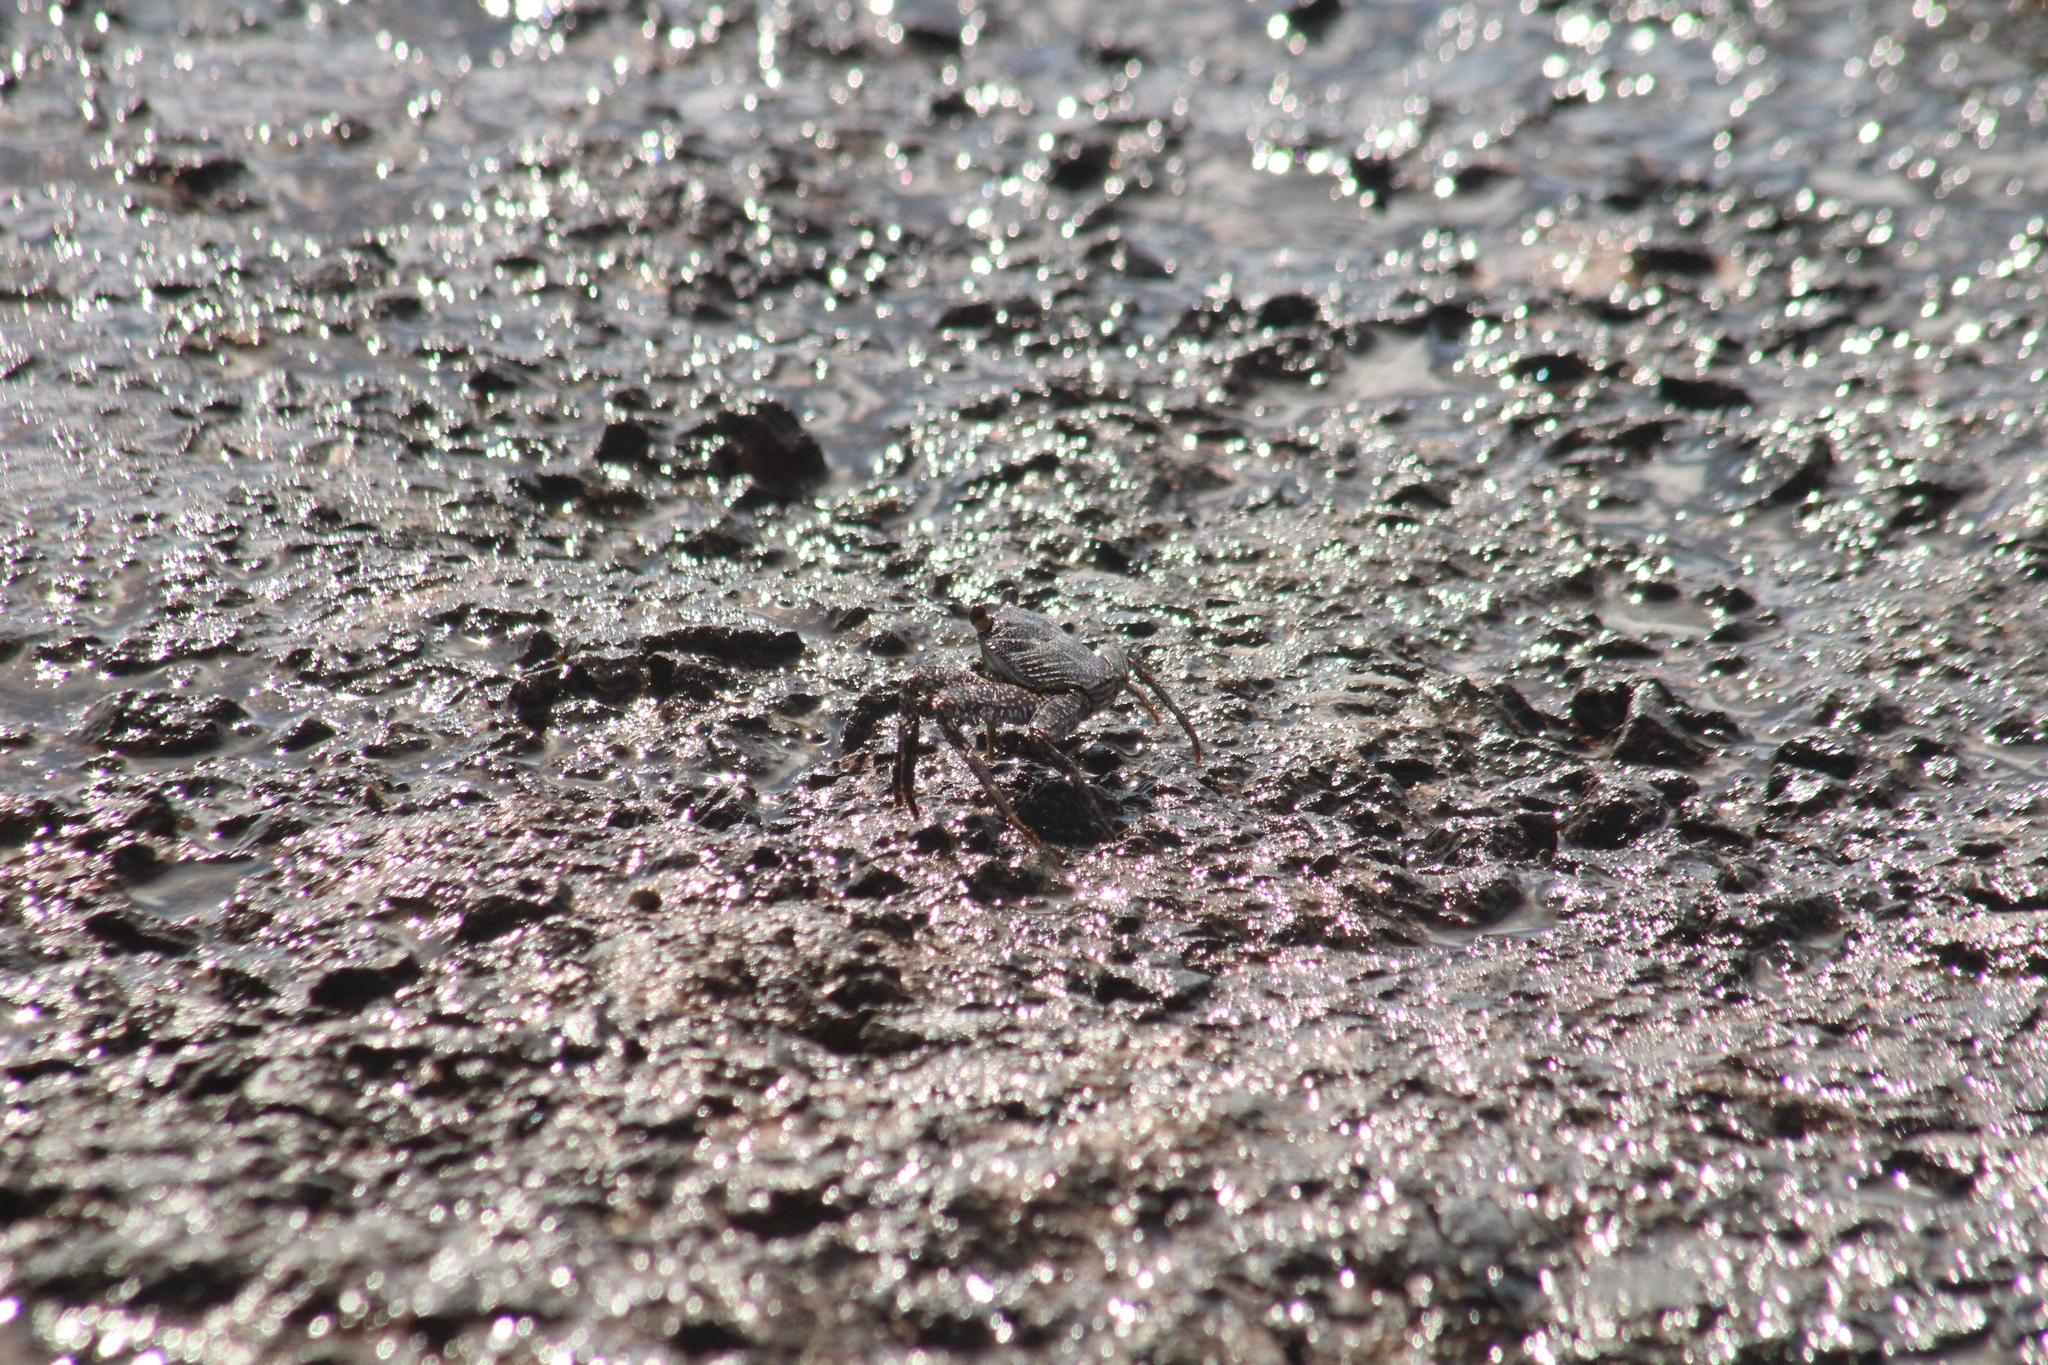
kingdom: Animalia
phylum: Arthropoda
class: Malacostraca
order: Decapoda
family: Grapsidae
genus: Grapsus
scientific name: Grapsus grapsus
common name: Sally lightfoot
